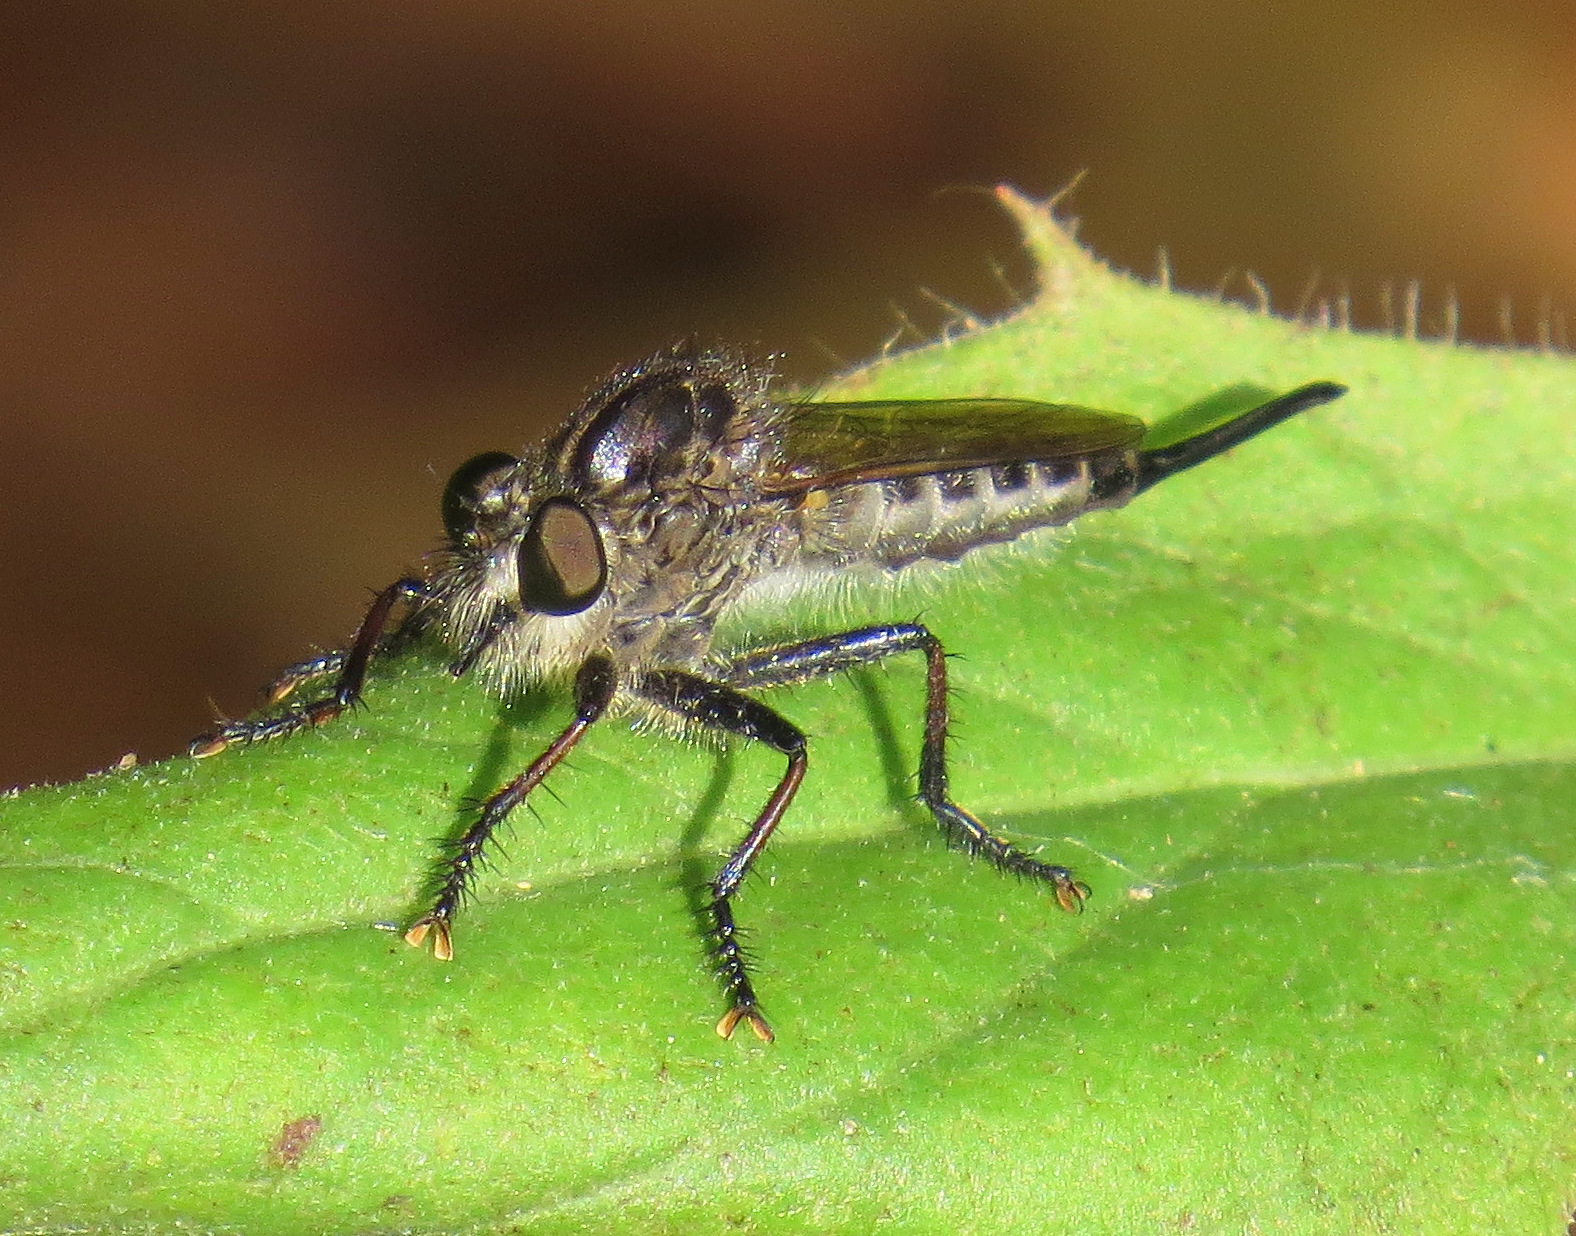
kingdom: Animalia
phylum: Arthropoda
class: Insecta
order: Diptera
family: Asilidae
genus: Efferia
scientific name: Efferia aestuans
